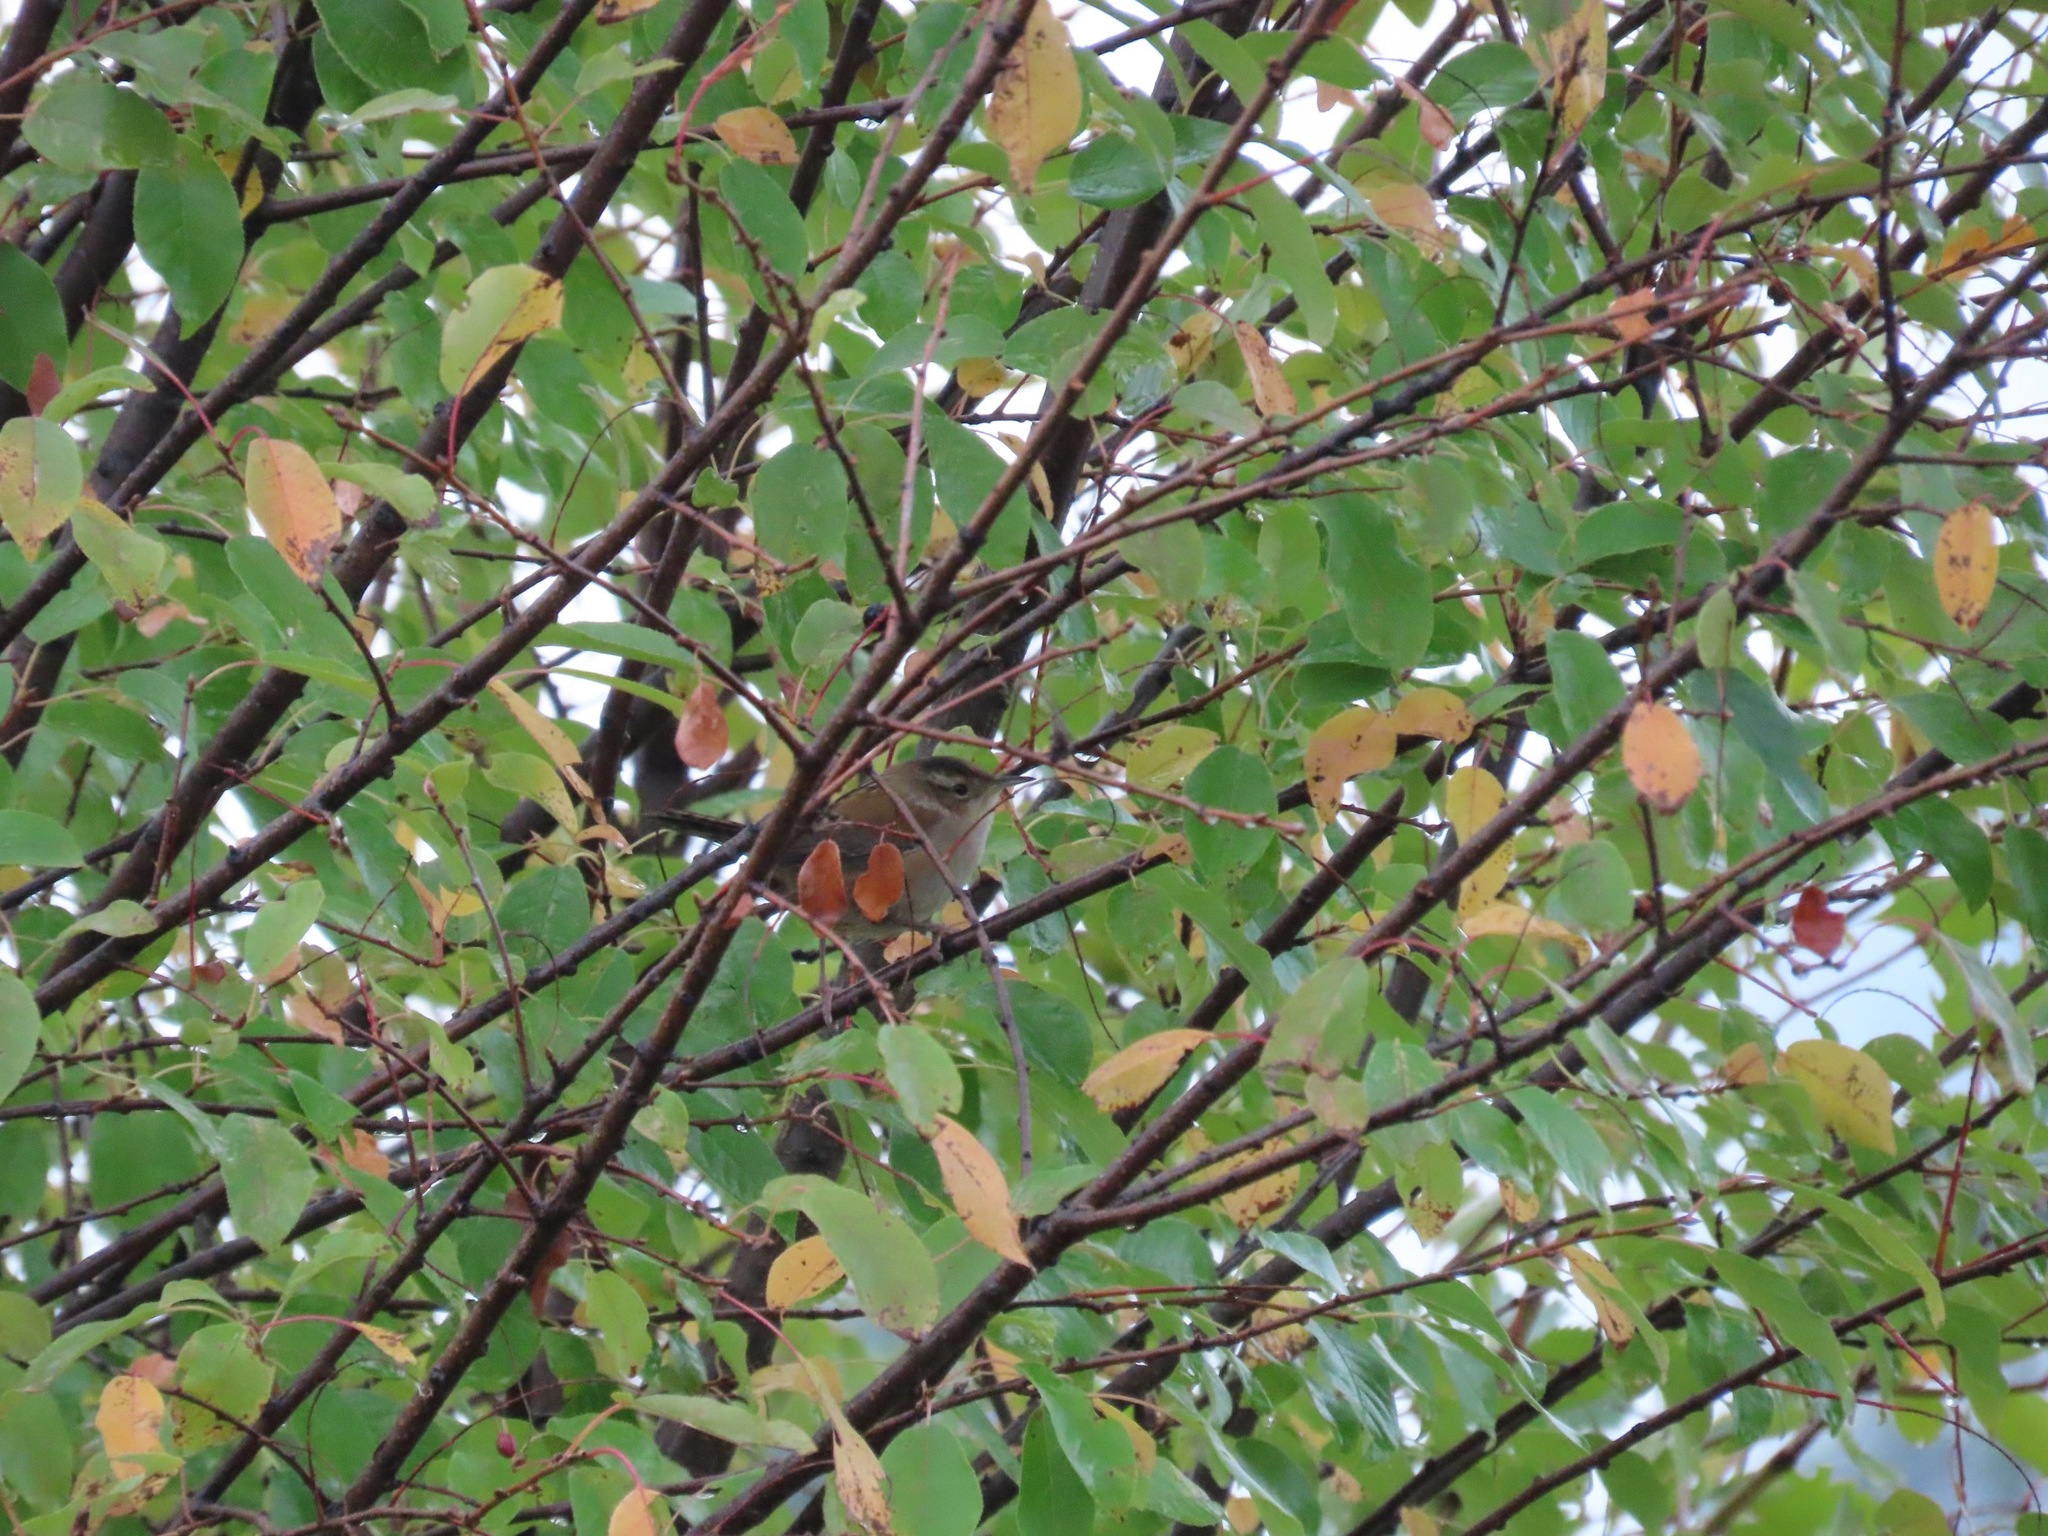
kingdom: Animalia
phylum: Chordata
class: Aves
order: Passeriformes
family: Troglodytidae
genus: Cistothorus
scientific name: Cistothorus palustris
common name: Marsh wren
